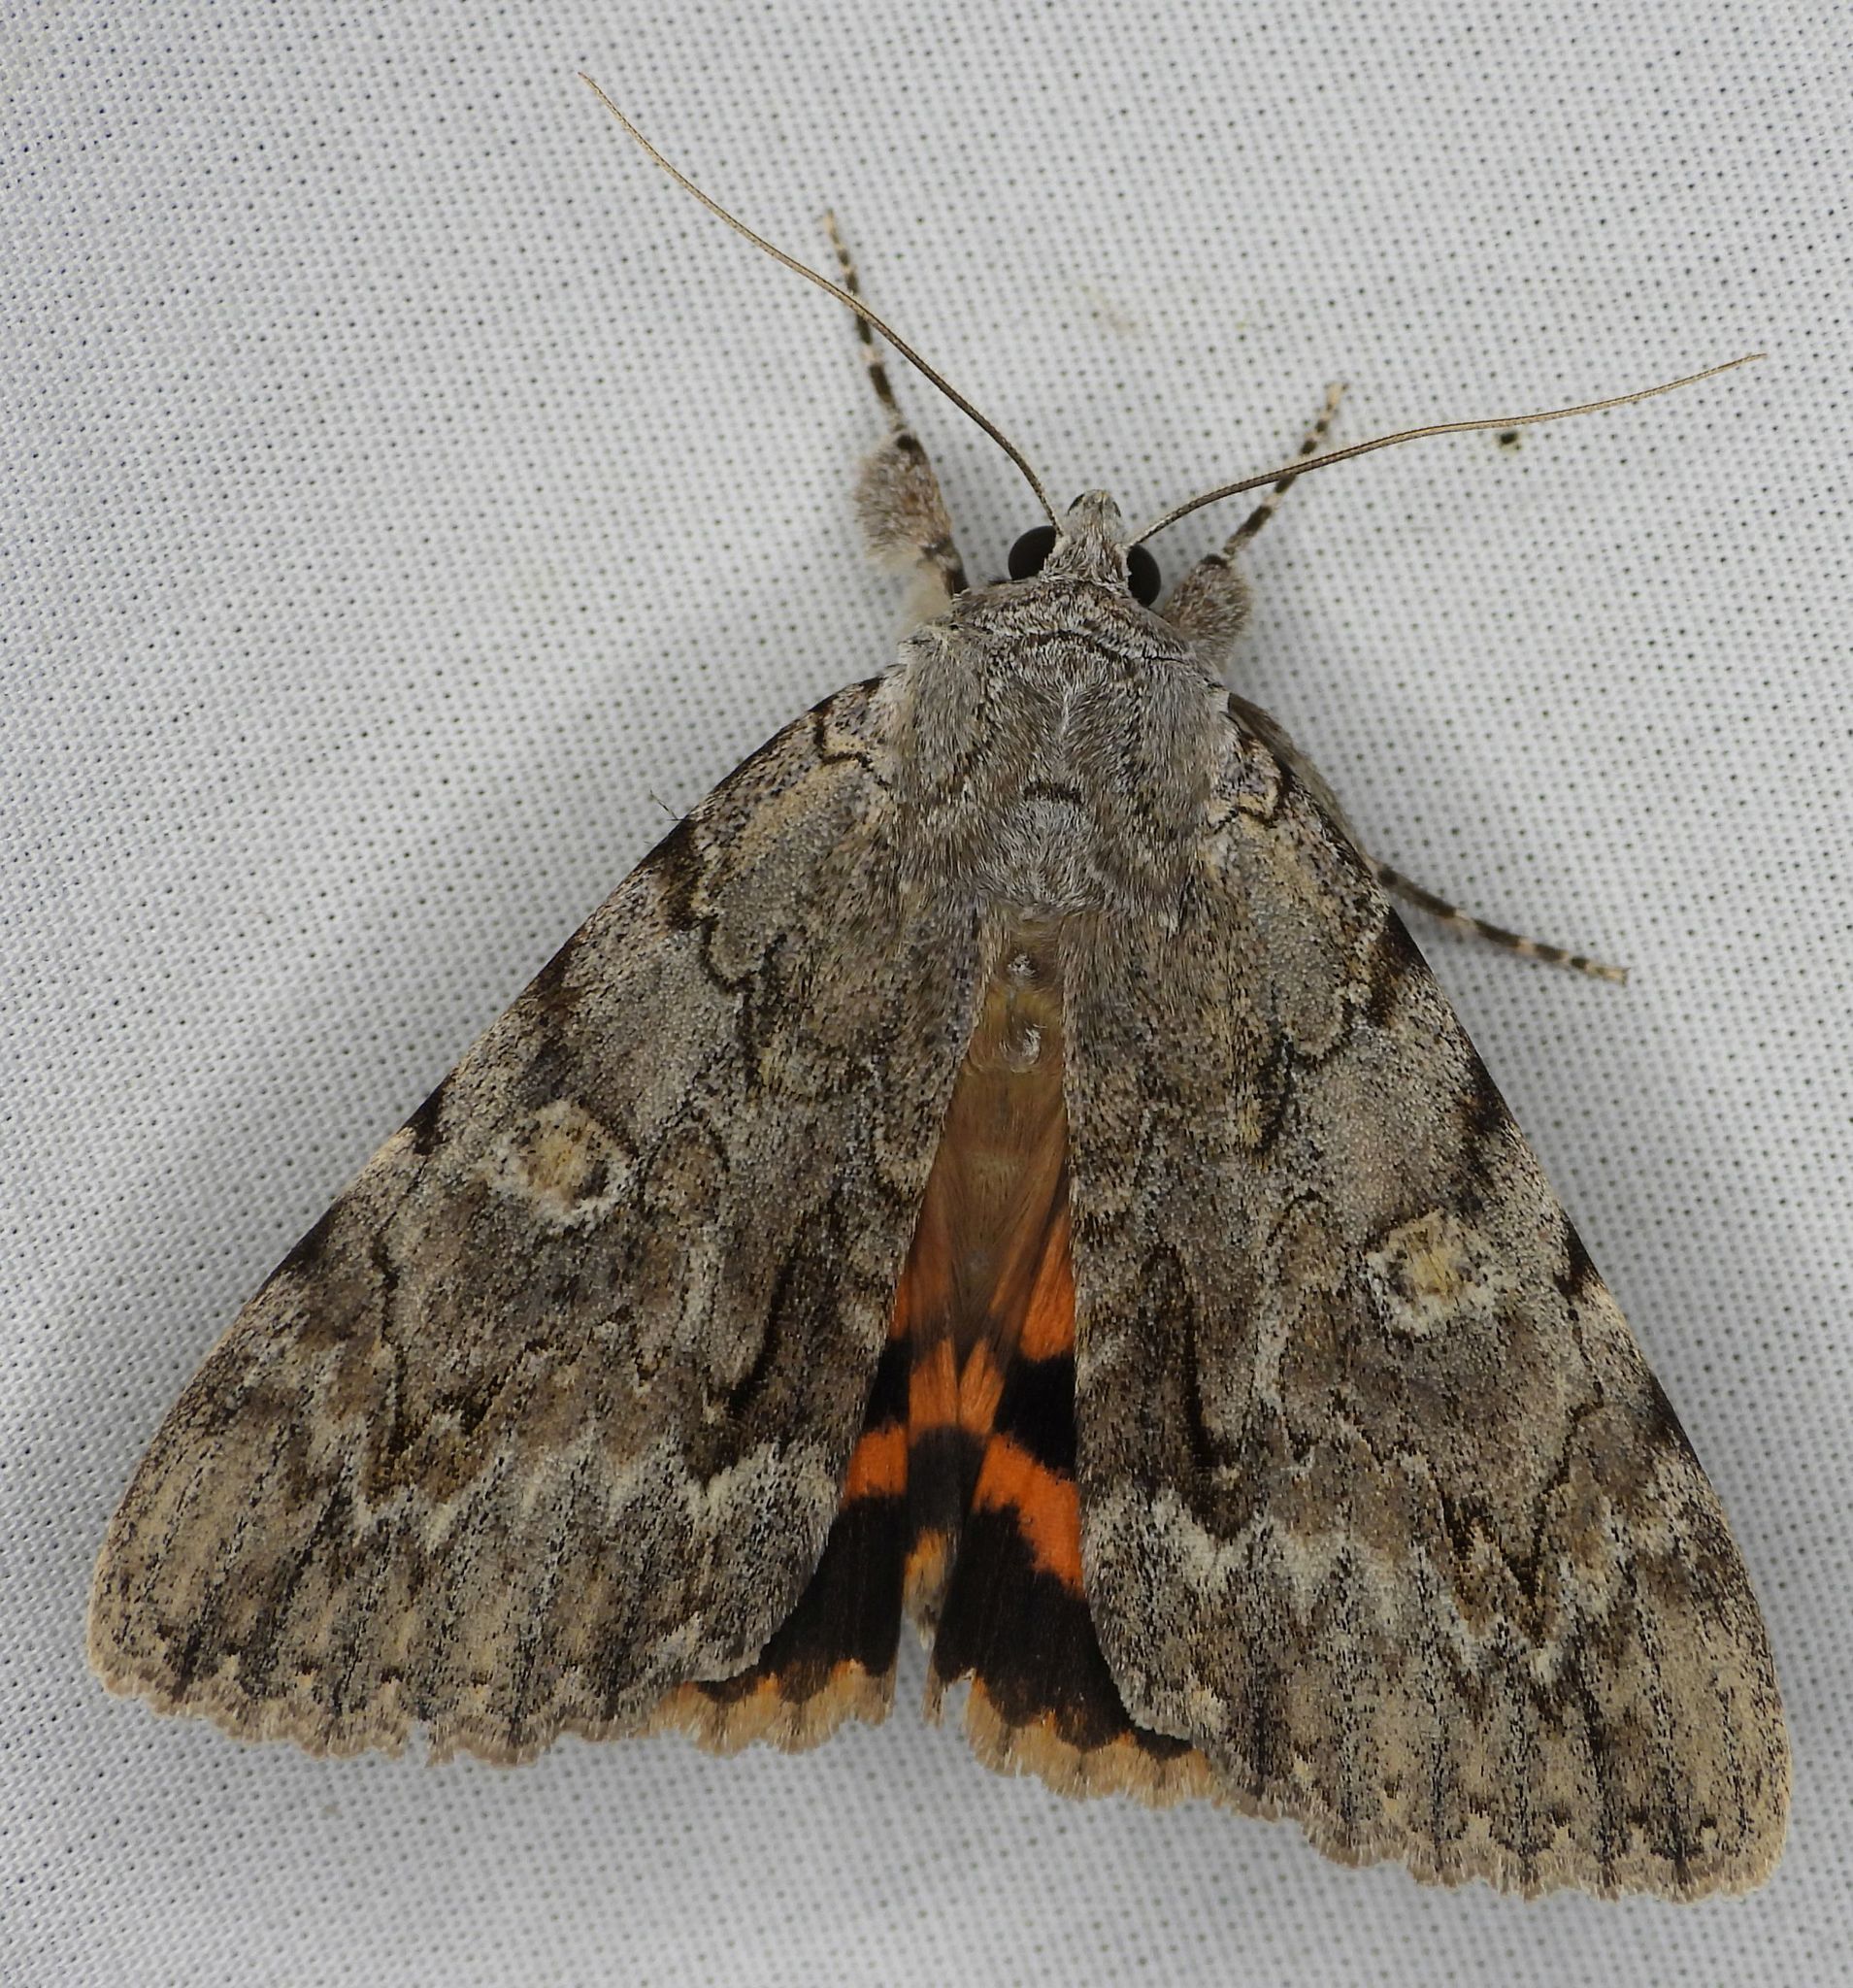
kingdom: Animalia
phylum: Arthropoda
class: Insecta
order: Lepidoptera
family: Erebidae
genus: Catocala
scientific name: Catocala habilis
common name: Habilis underwing
